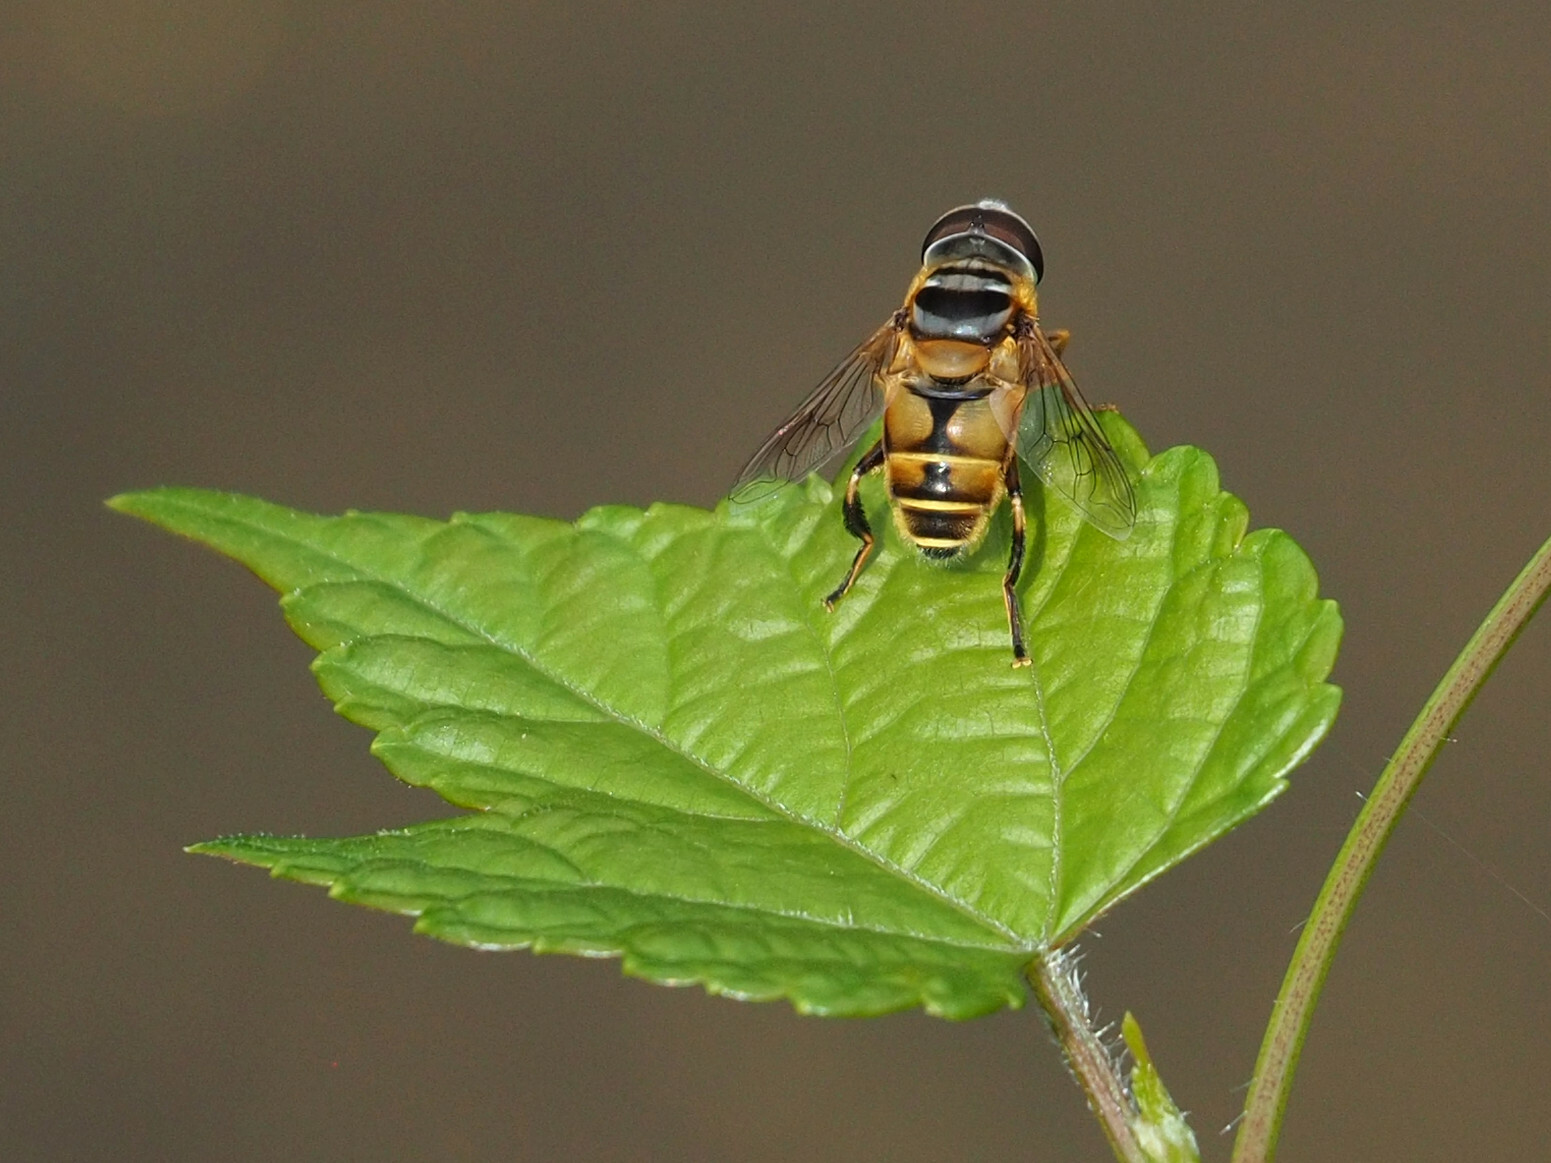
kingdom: Animalia
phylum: Arthropoda
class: Insecta
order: Diptera
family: Syrphidae
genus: Palpada
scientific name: Palpada vinetorum
